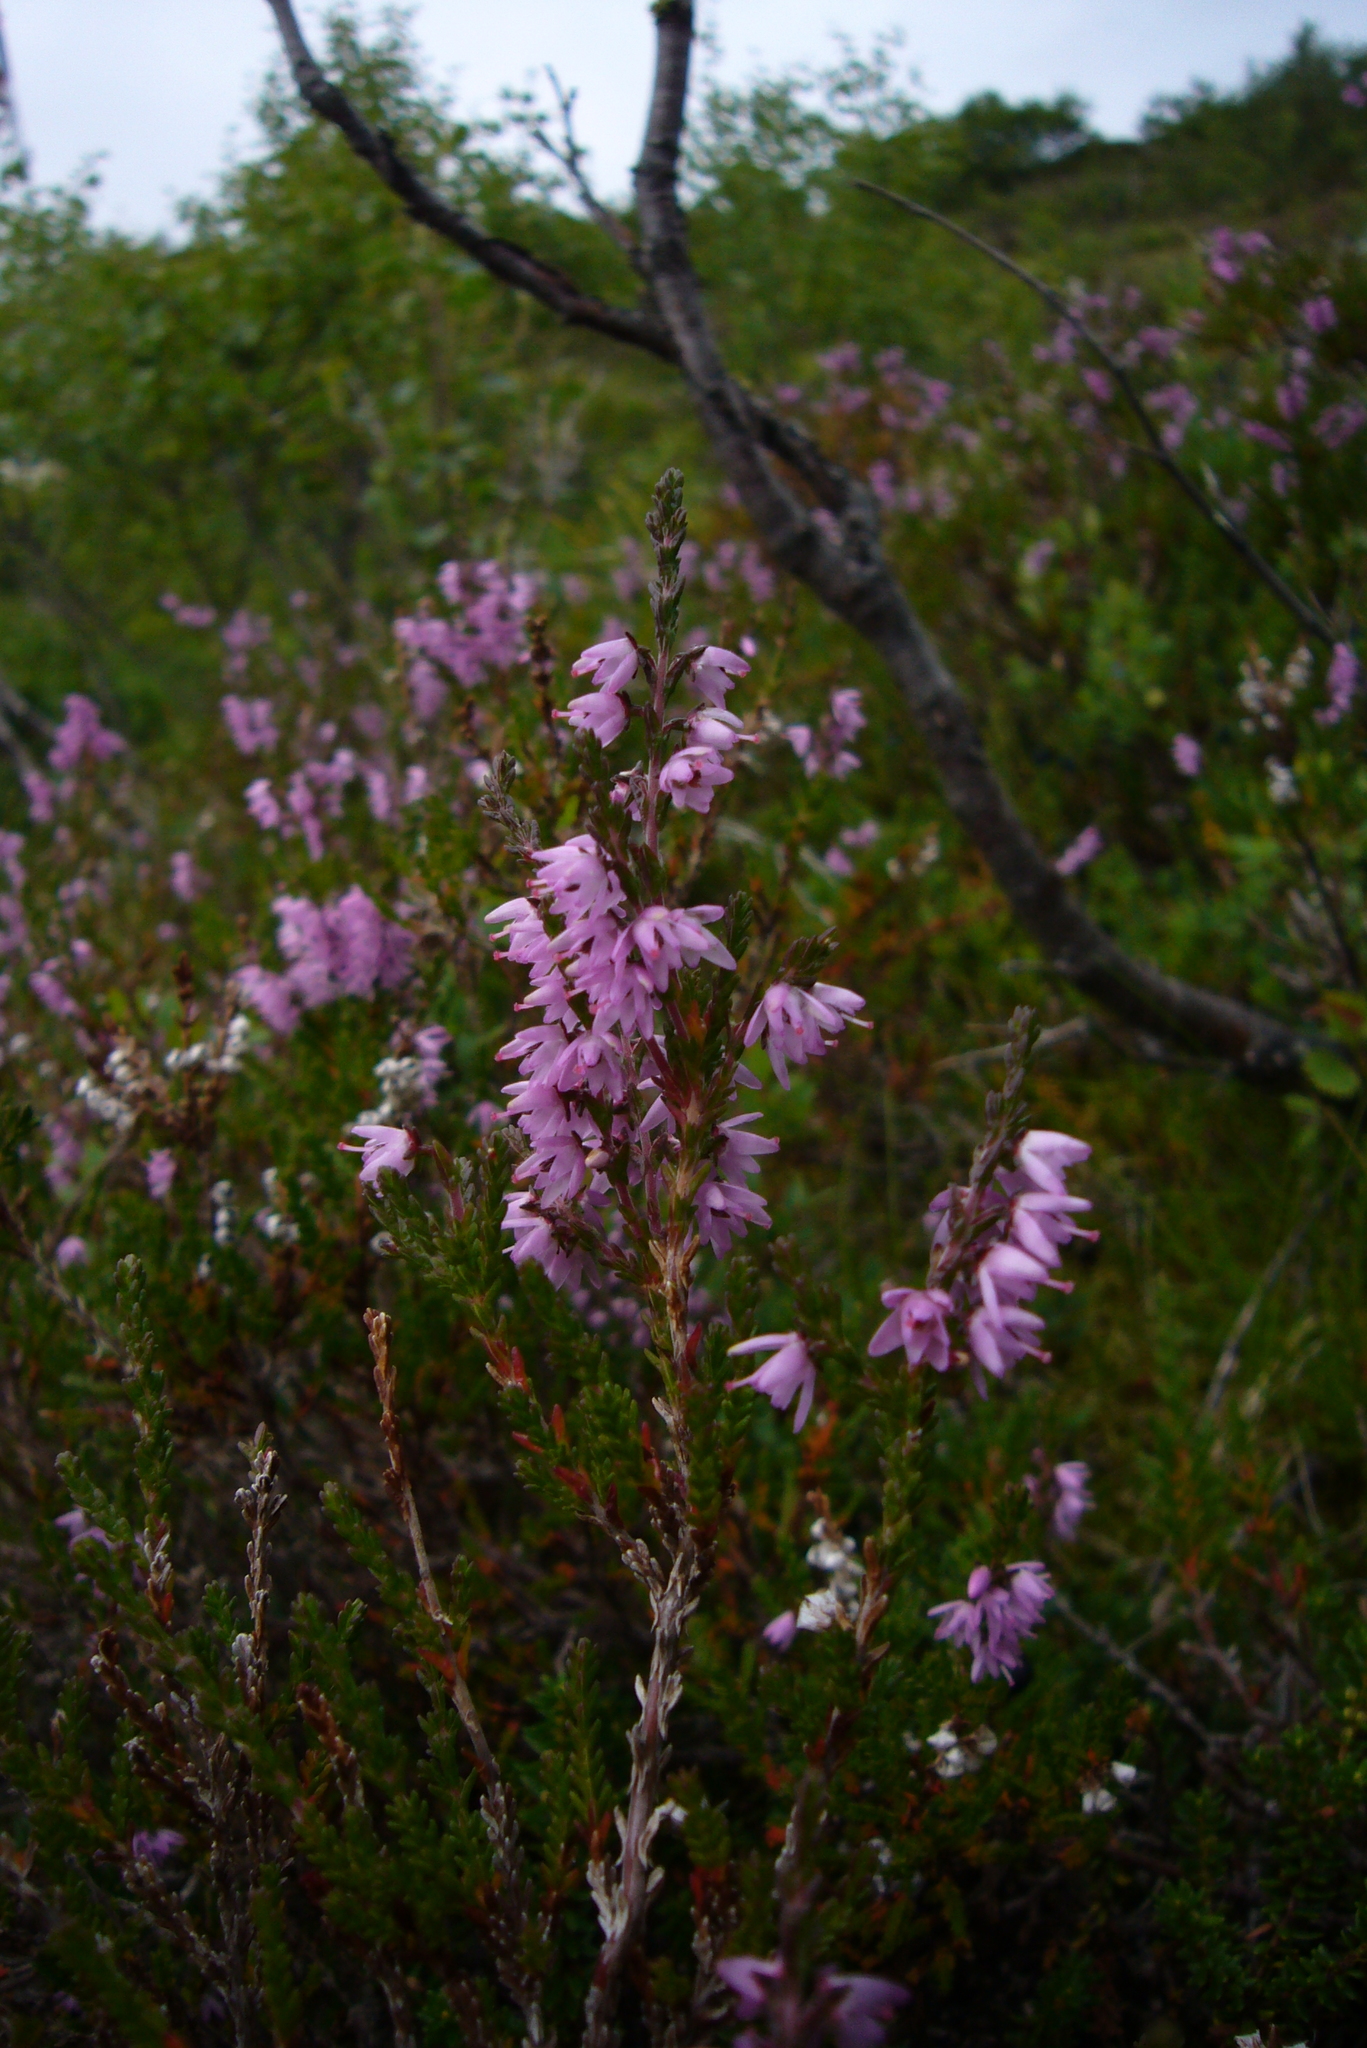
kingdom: Plantae
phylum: Tracheophyta
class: Magnoliopsida
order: Ericales
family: Ericaceae
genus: Calluna
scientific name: Calluna vulgaris
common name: Heather
